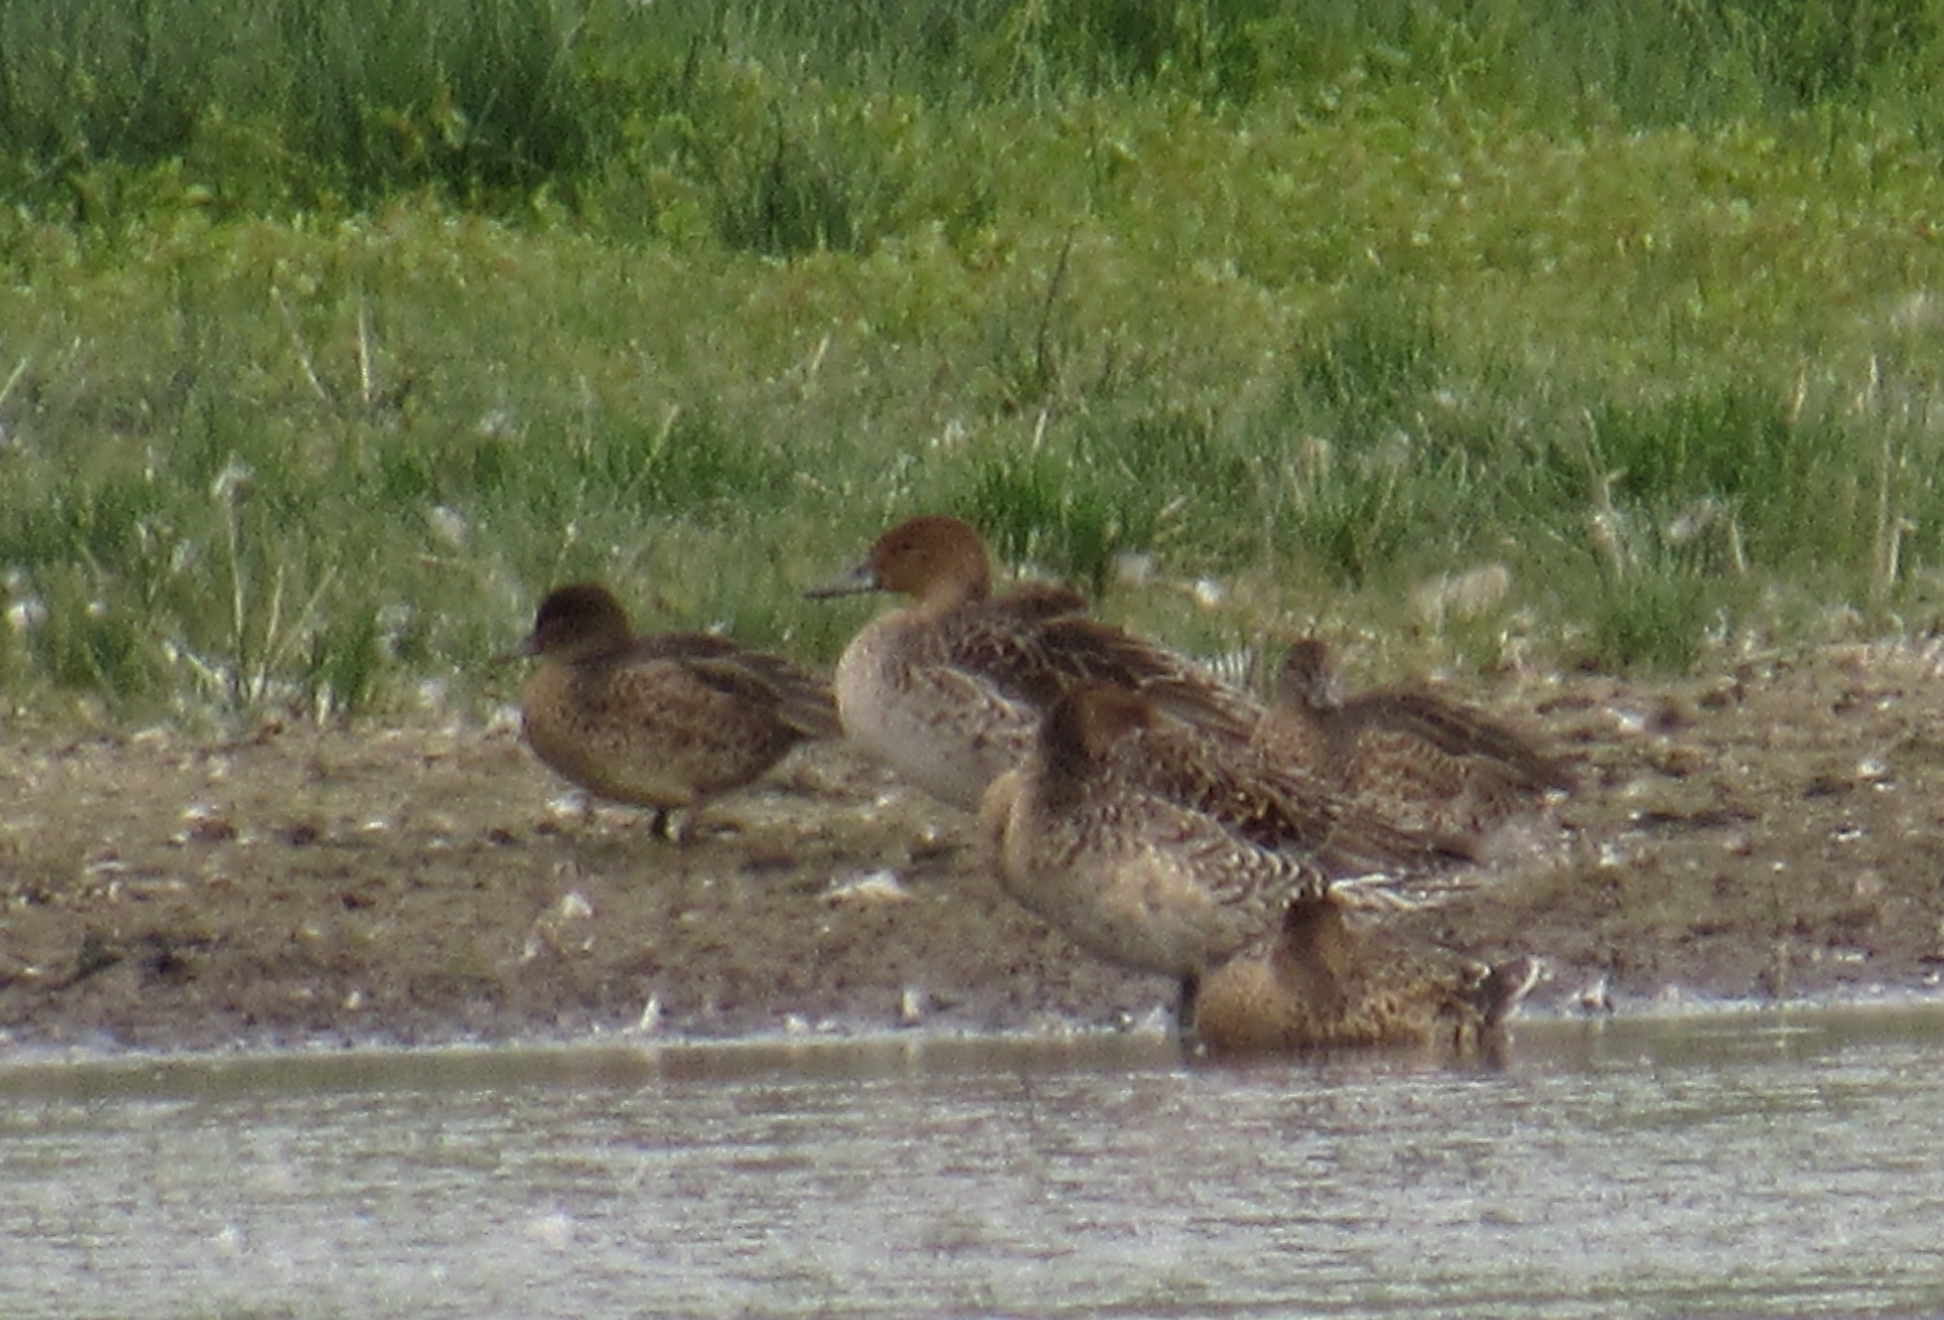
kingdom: Animalia
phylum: Chordata
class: Aves
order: Anseriformes
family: Anatidae
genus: Anas
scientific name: Anas acuta
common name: Northern pintail
